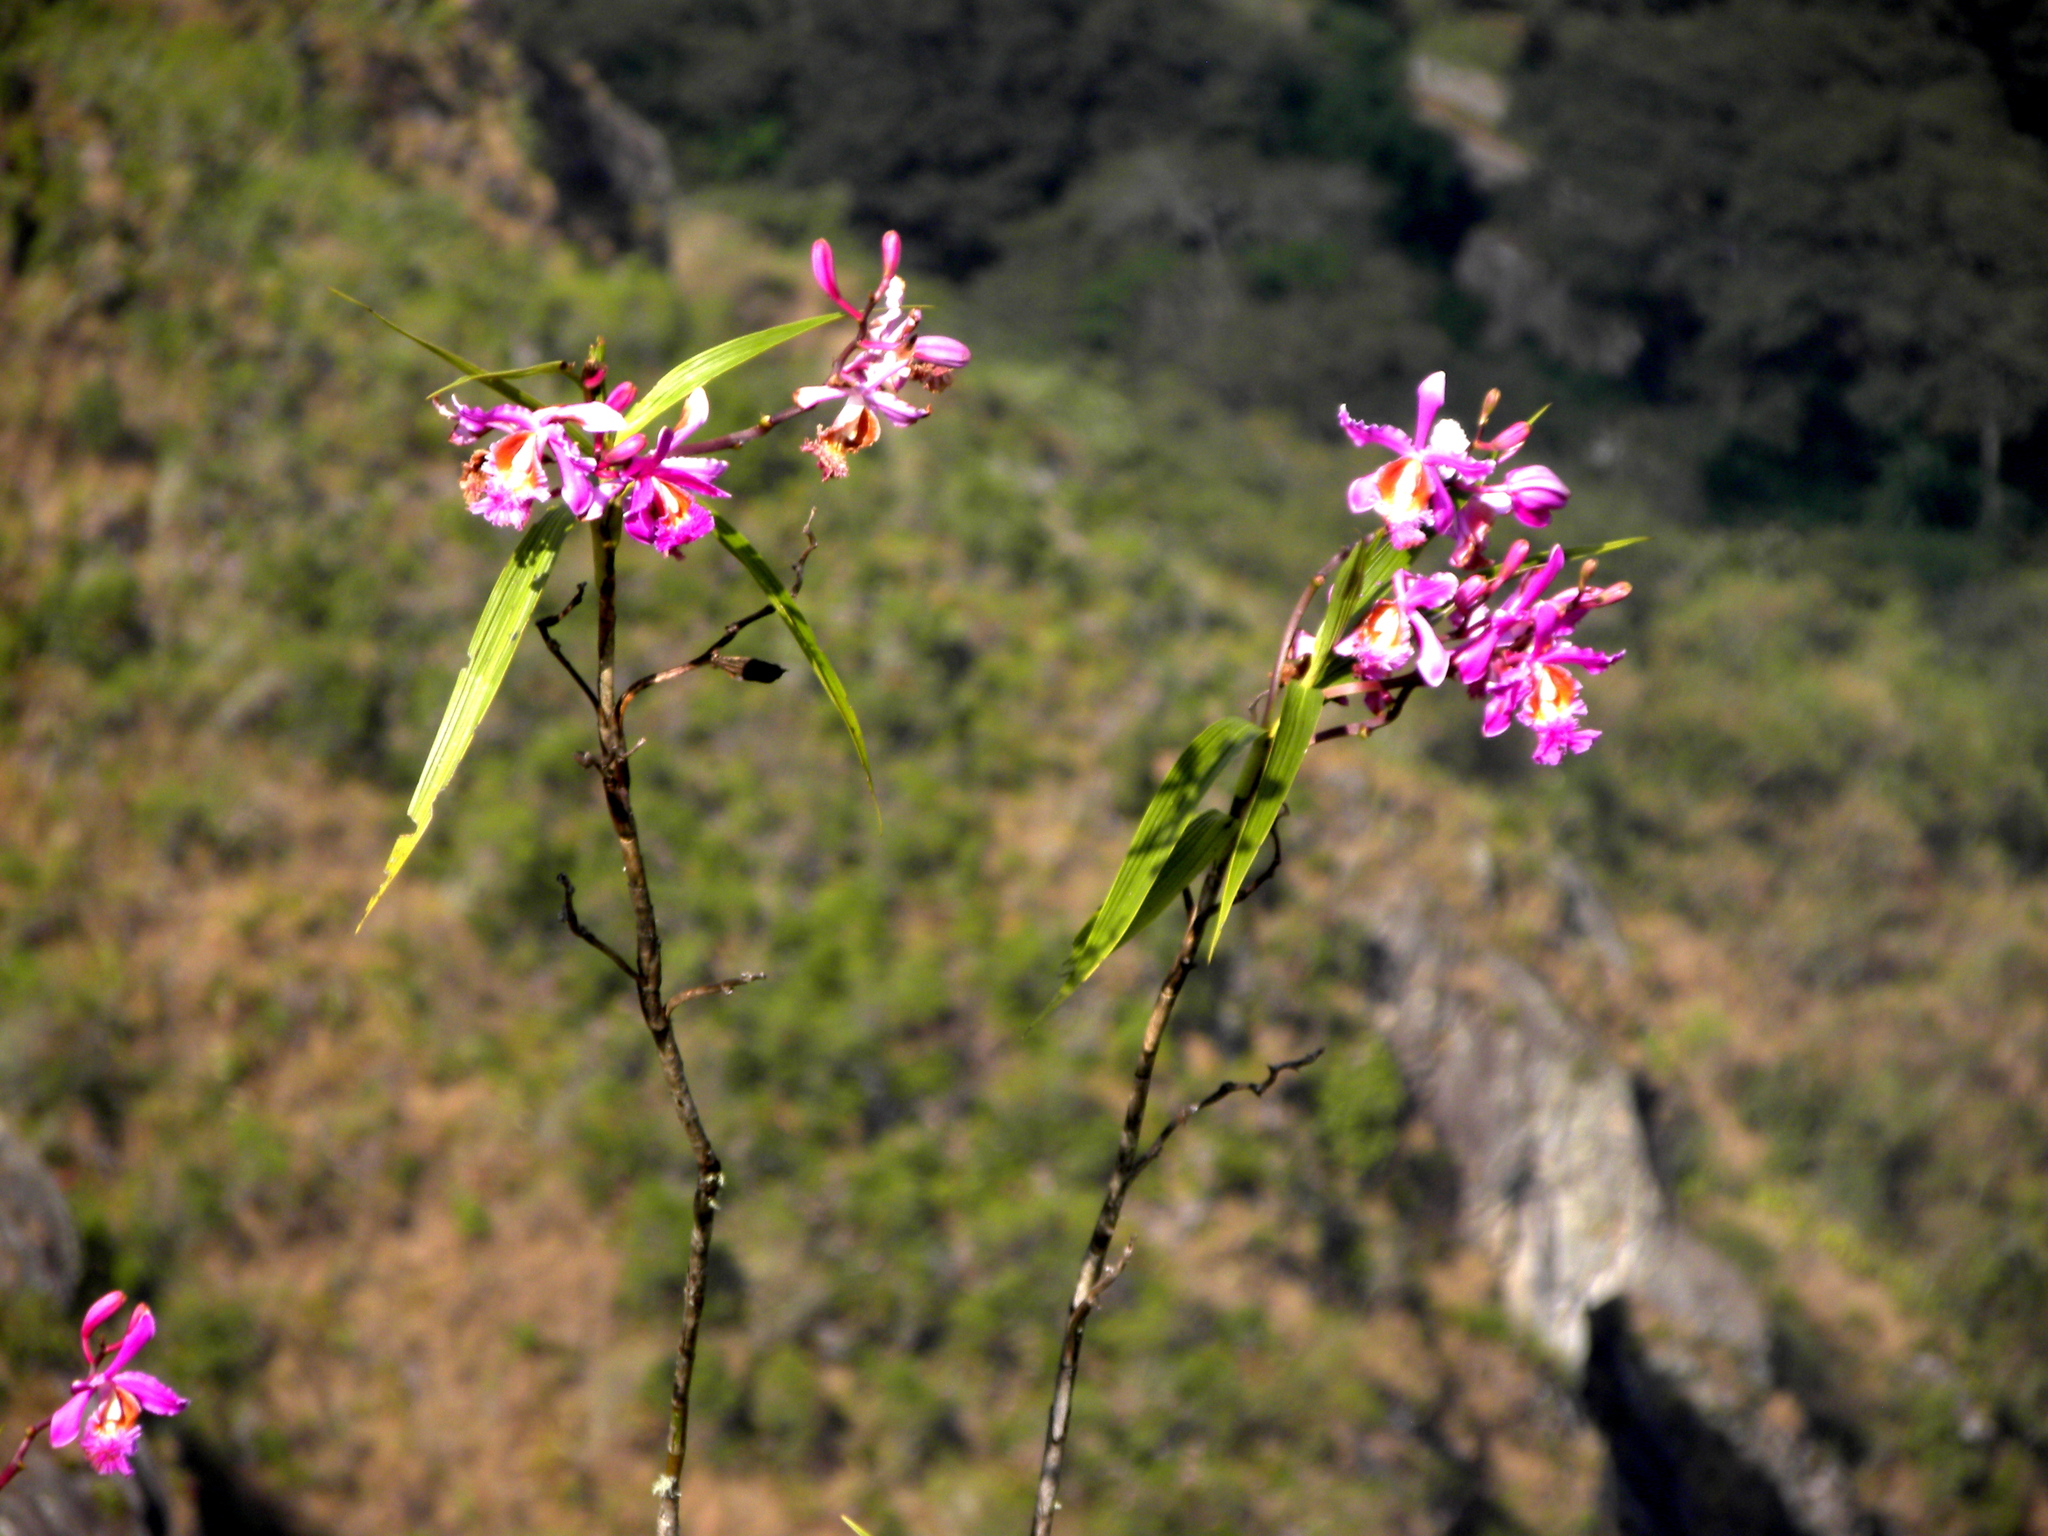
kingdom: Plantae
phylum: Tracheophyta
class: Liliopsida
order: Asparagales
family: Orchidaceae
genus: Sobralia
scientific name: Sobralia dichotoma
